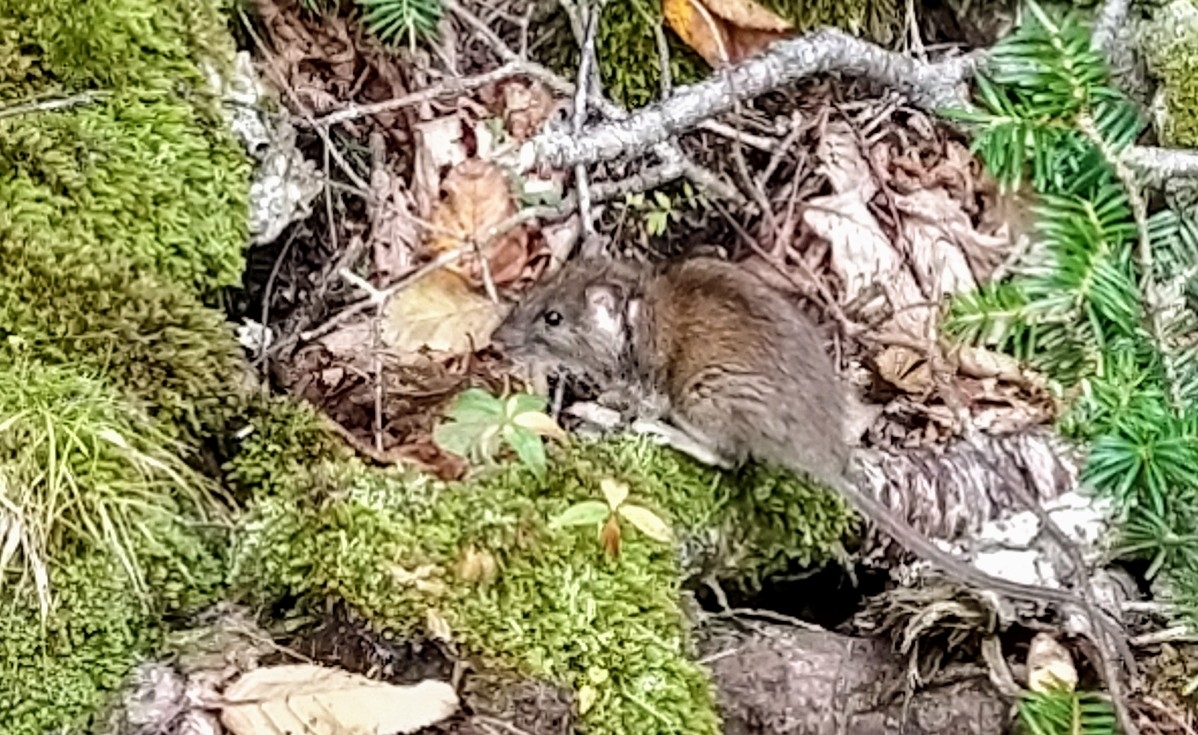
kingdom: Animalia
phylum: Chordata
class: Mammalia
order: Rodentia
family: Muridae
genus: Rattus
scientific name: Rattus norvegicus
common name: Brown rat
